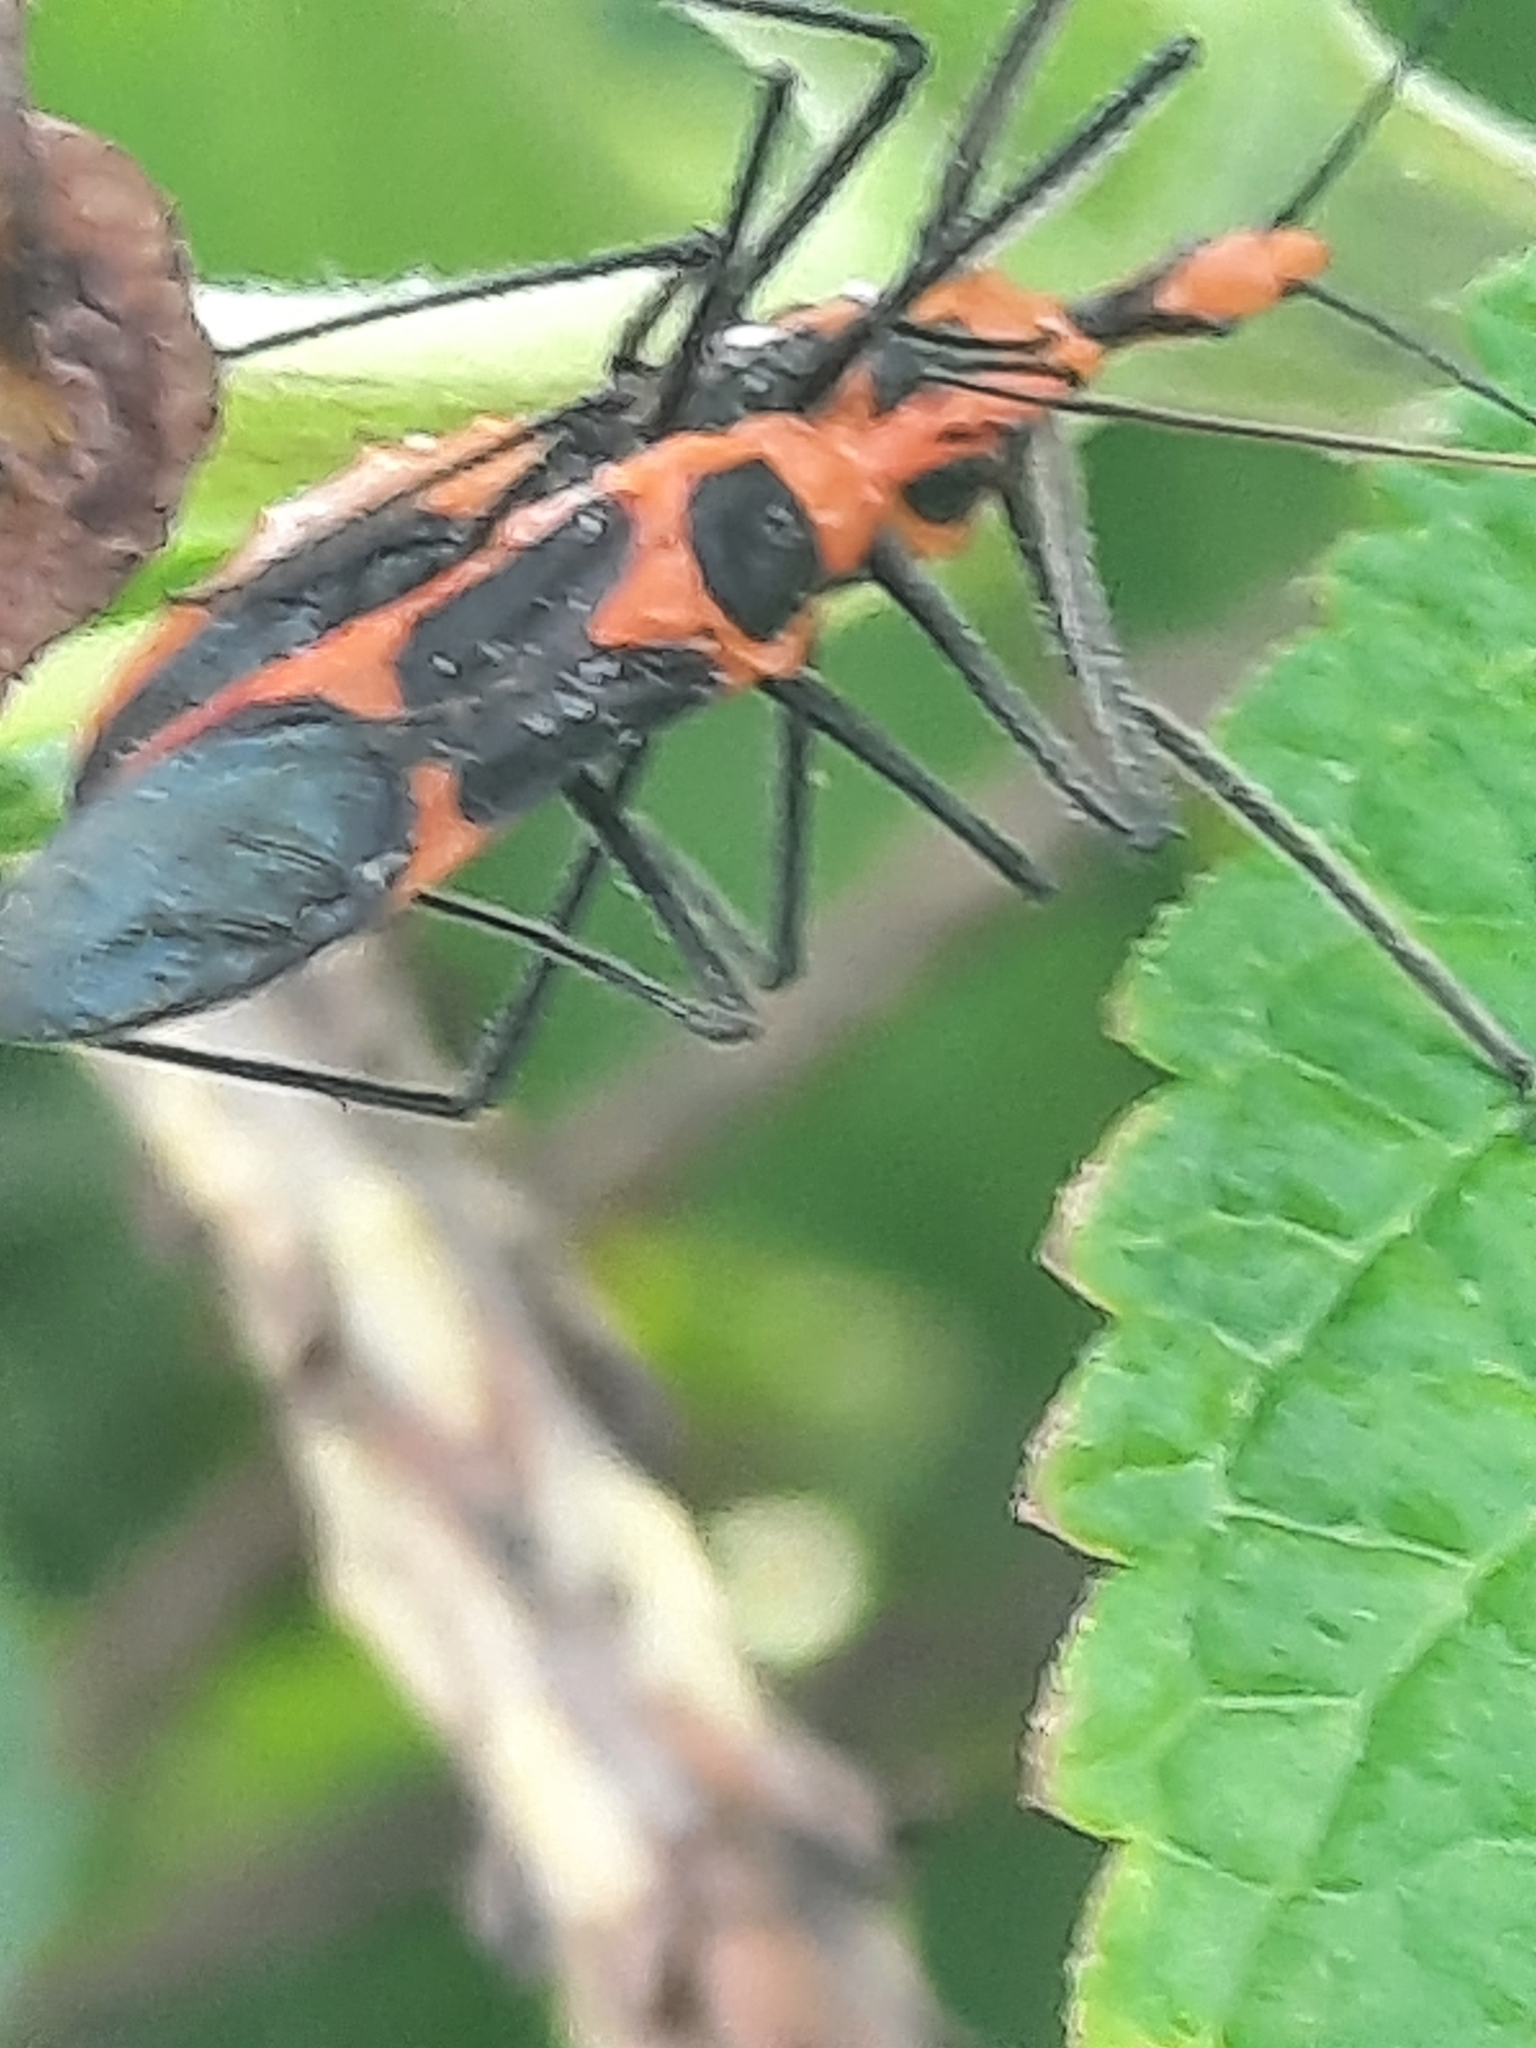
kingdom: Animalia
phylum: Arthropoda
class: Insecta
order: Hemiptera
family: Reduviidae
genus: Zelus
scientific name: Zelus longipes
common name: Milkweed assassin bug
